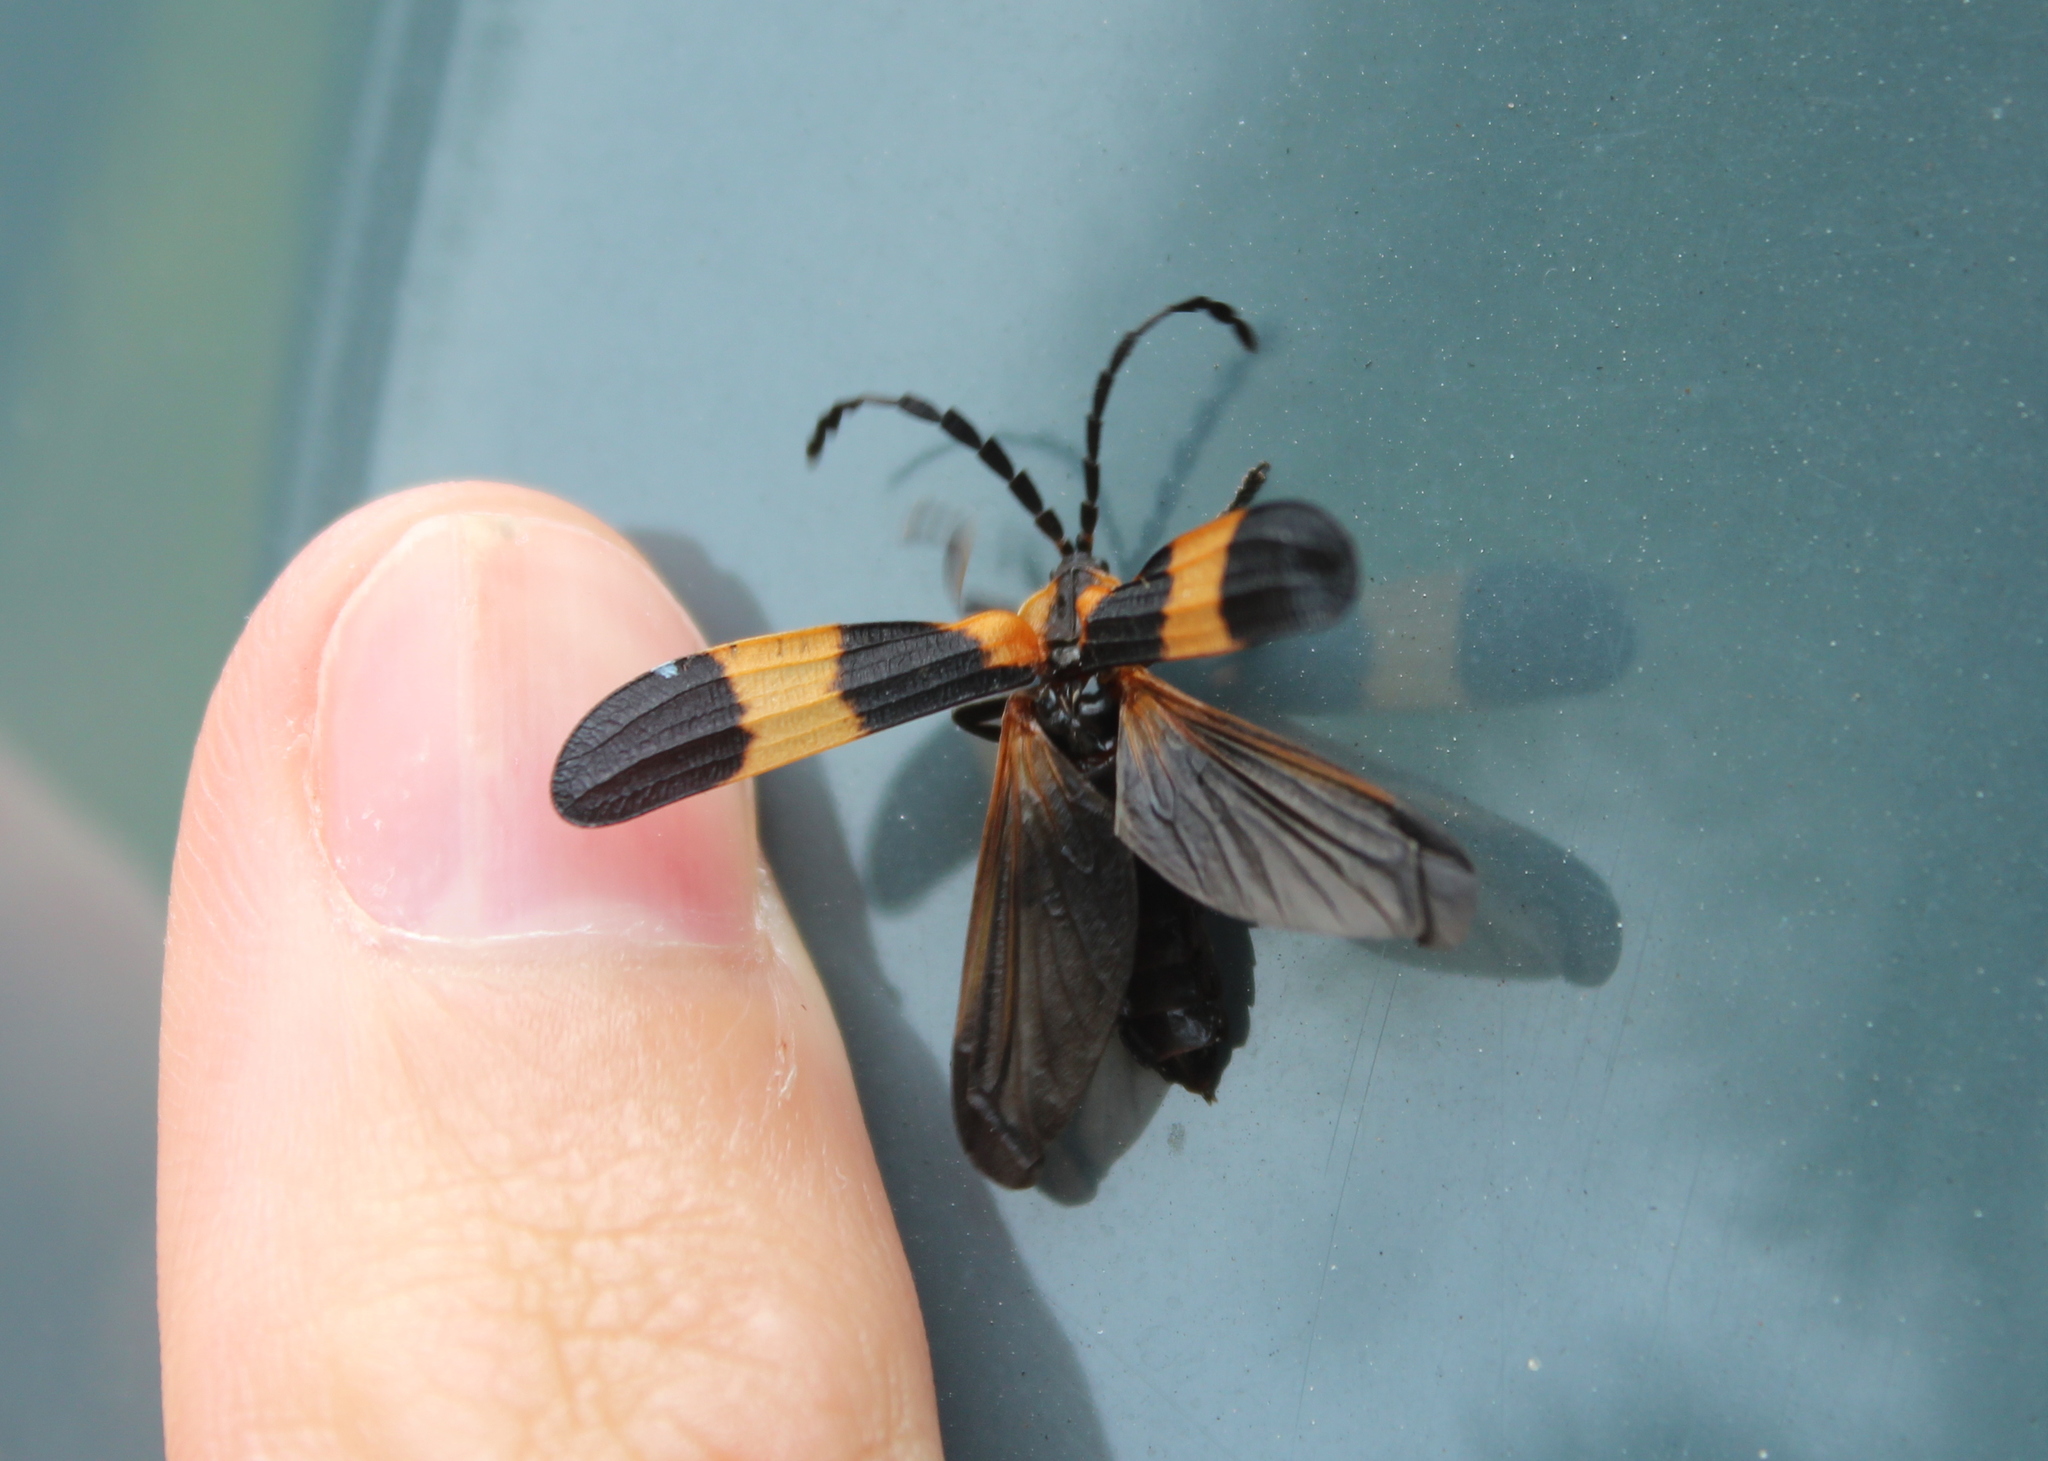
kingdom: Animalia
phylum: Arthropoda
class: Insecta
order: Coleoptera
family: Lycidae
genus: Calopteron
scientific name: Calopteron reticulatum
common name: Banded net-winged beetle
